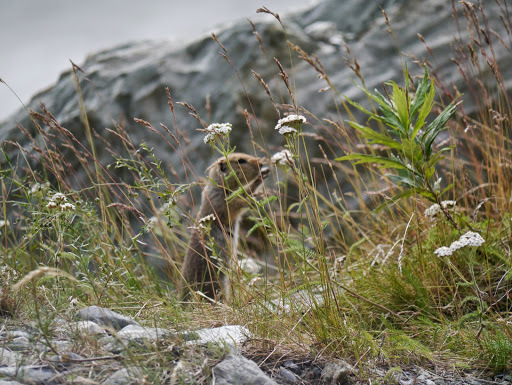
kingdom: Animalia
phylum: Chordata
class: Mammalia
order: Rodentia
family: Sciuridae
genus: Urocitellus
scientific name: Urocitellus parryii
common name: Arctic ground squirrel
